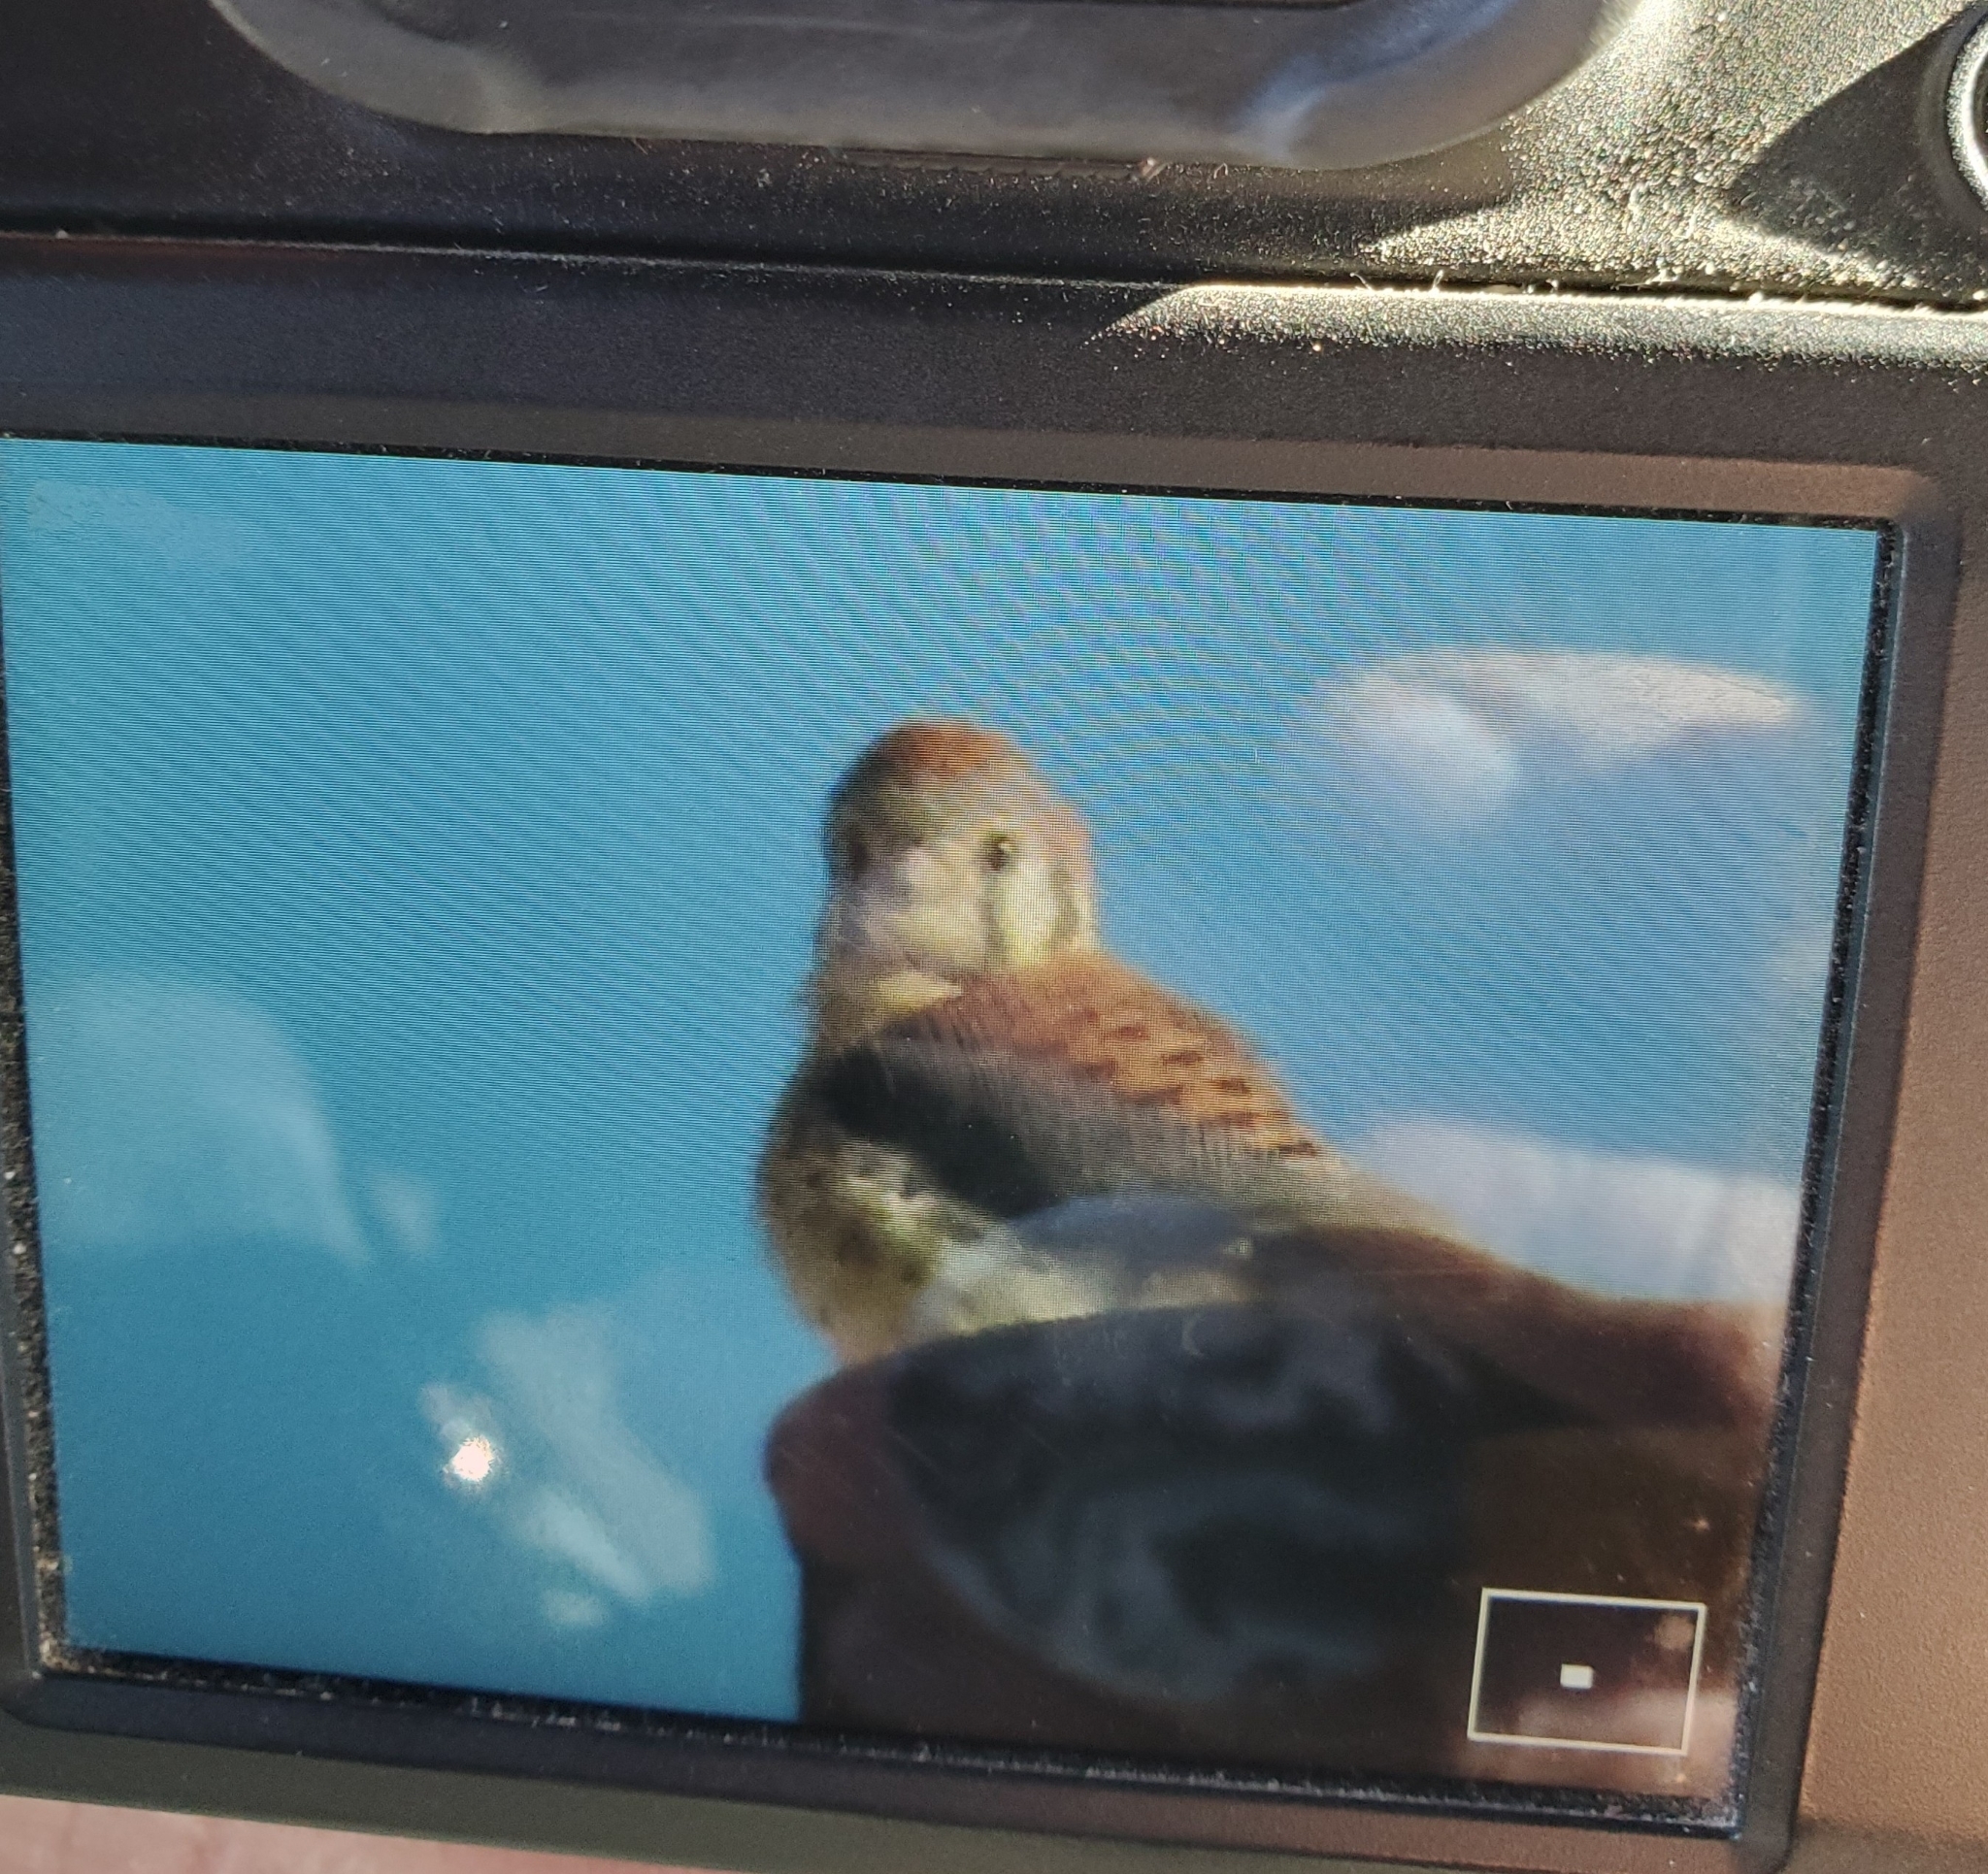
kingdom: Animalia
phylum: Chordata
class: Aves
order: Falconiformes
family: Falconidae
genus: Falco
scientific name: Falco sparverius
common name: American kestrel
